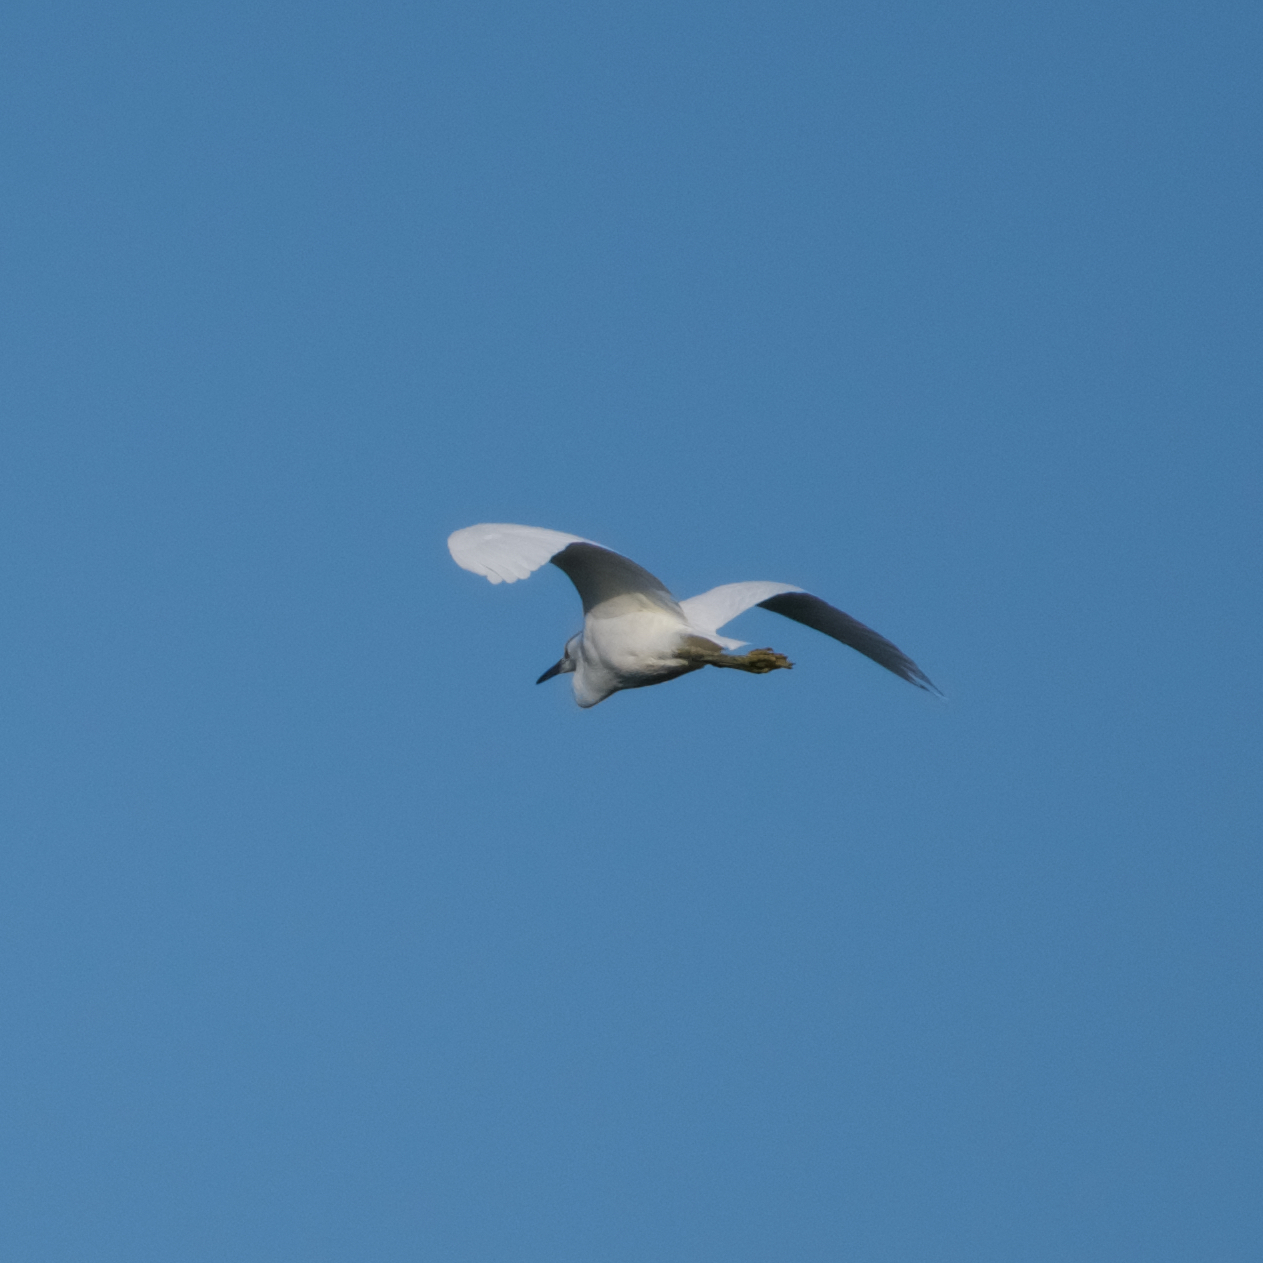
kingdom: Animalia
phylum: Chordata
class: Aves
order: Pelecaniformes
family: Ardeidae
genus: Egretta
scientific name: Egretta thula
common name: Snowy egret
